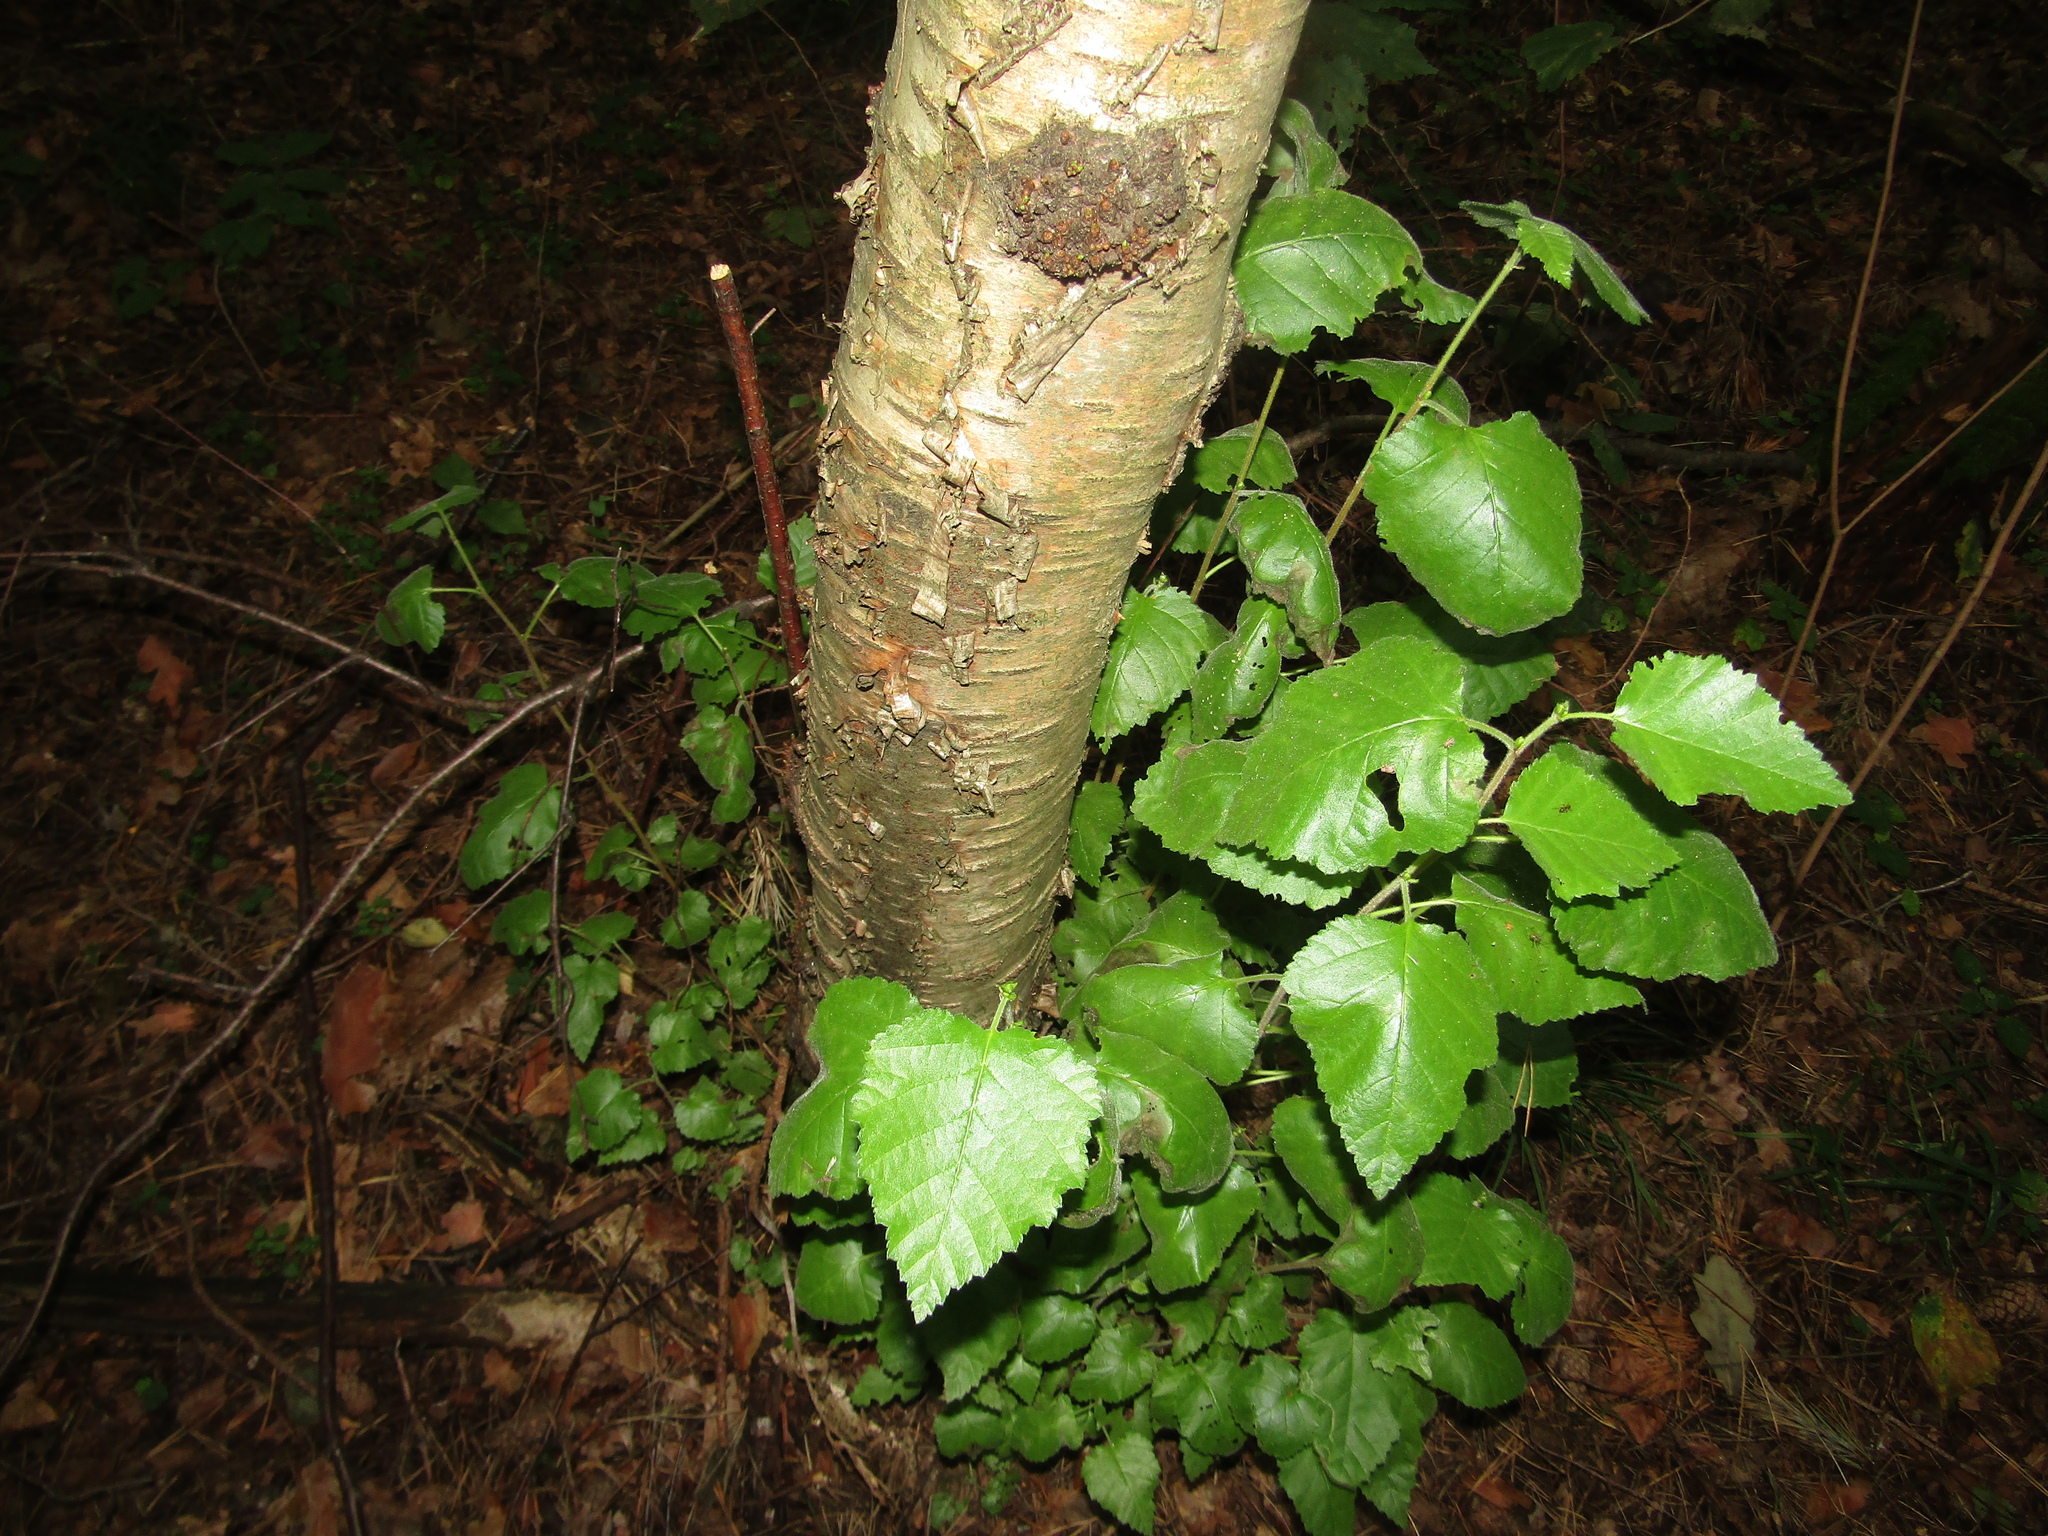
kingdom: Plantae
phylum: Tracheophyta
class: Magnoliopsida
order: Fagales
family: Betulaceae
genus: Betula
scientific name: Betula pubescens
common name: Downy birch
